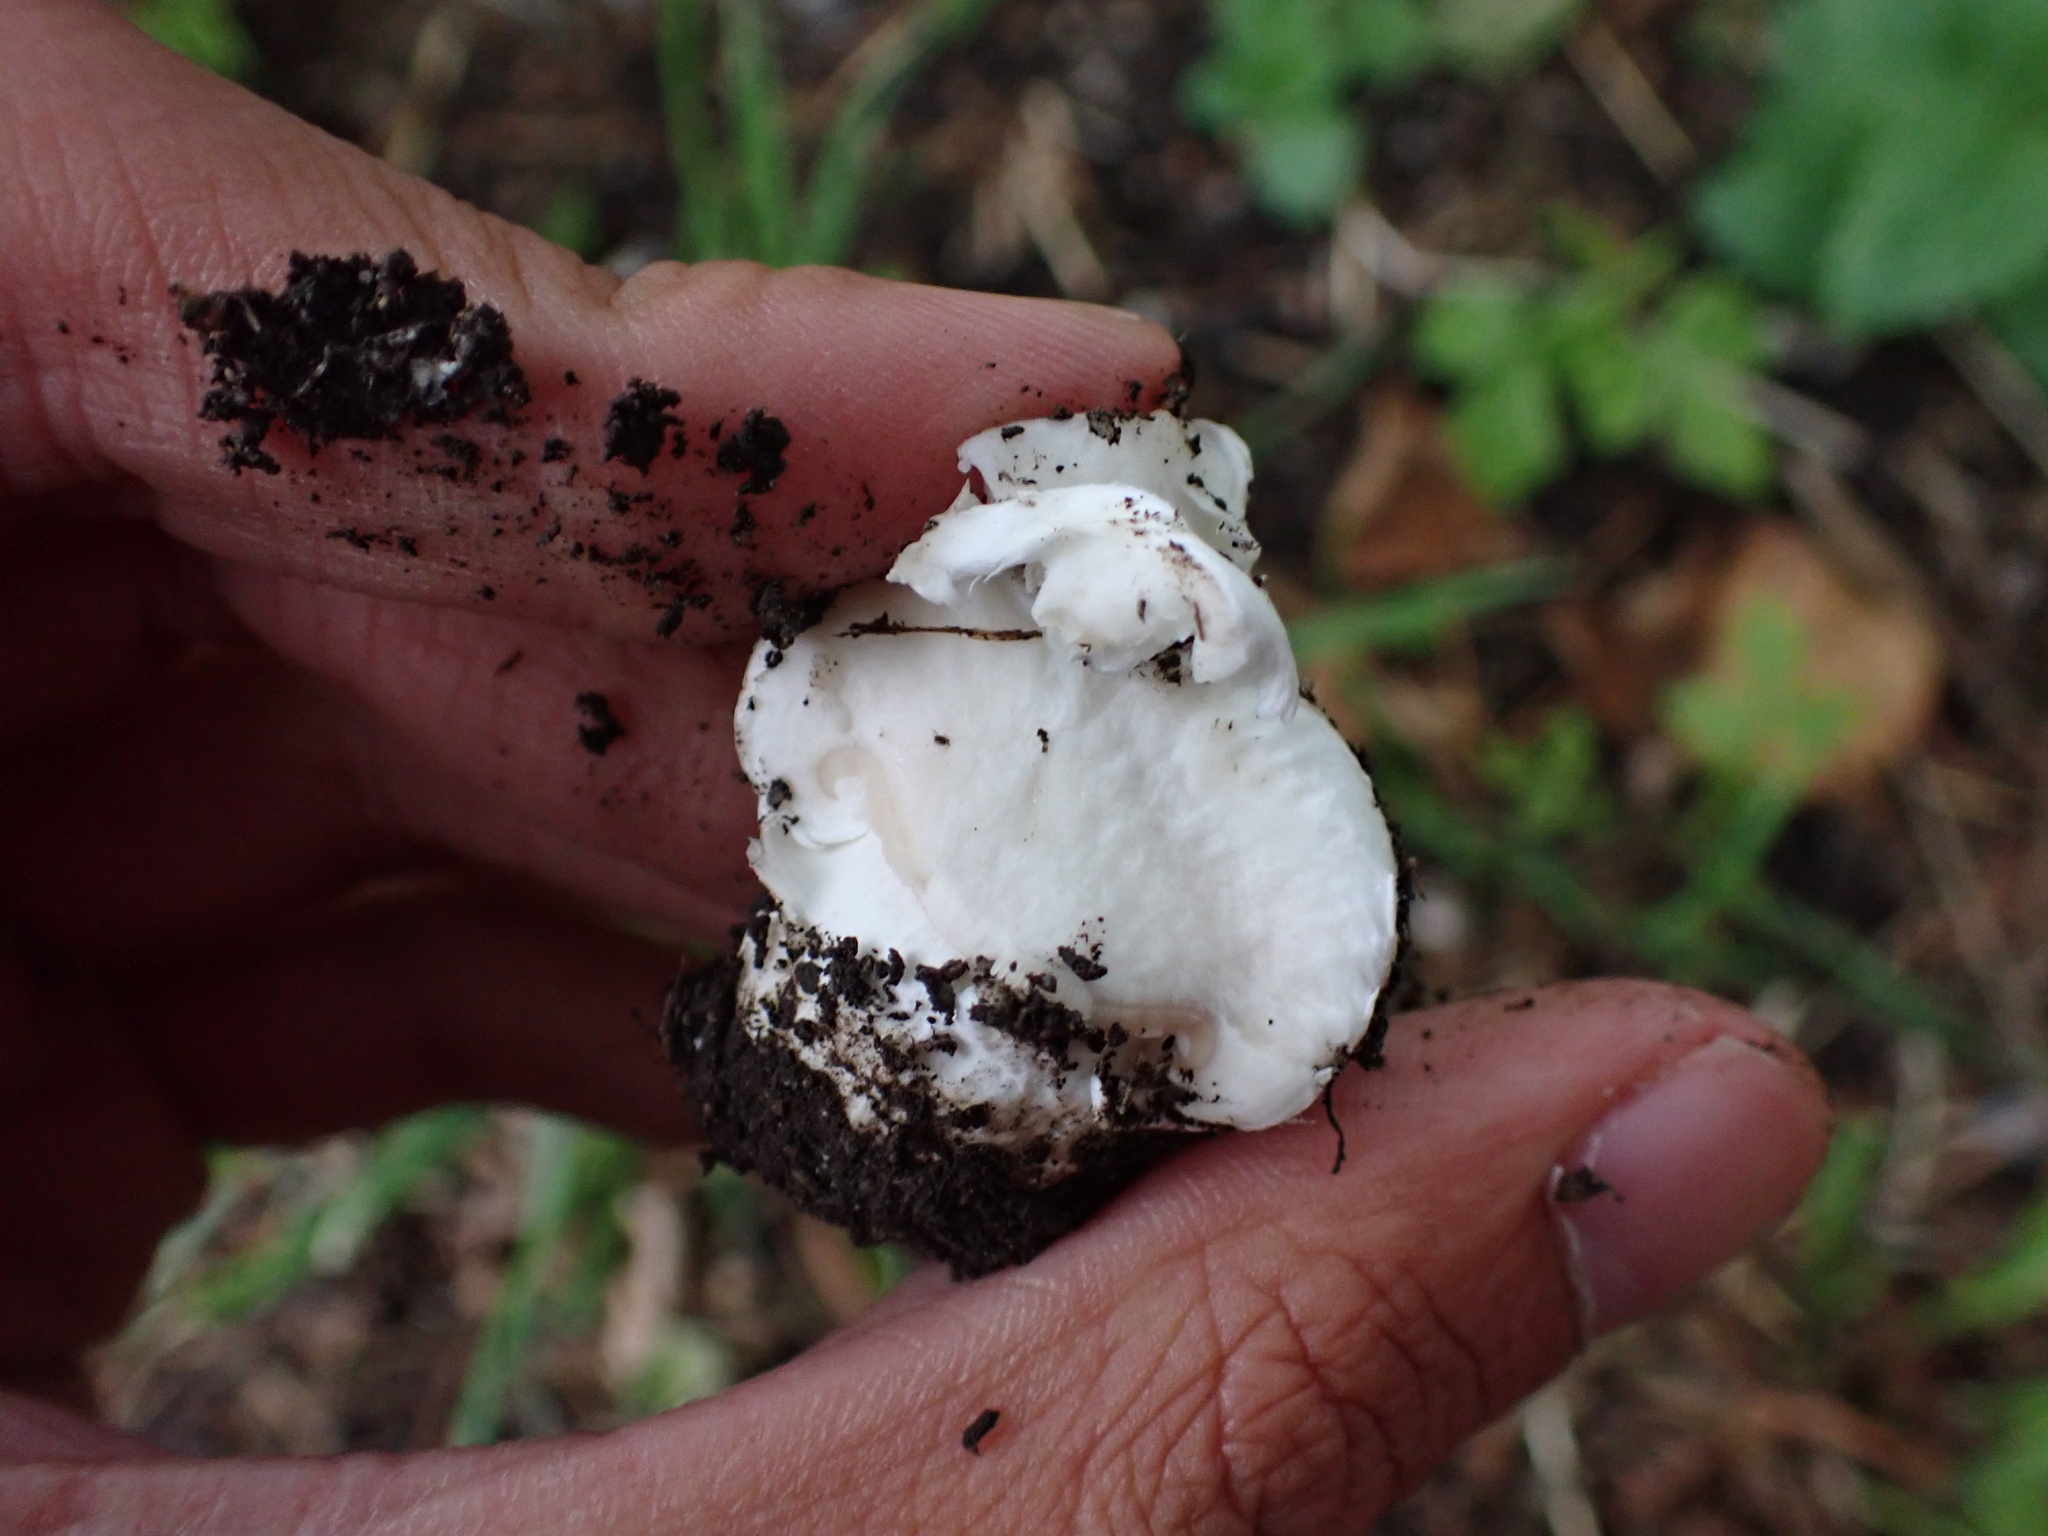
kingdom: Fungi
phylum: Basidiomycota
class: Agaricomycetes
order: Agaricales
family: Agaricaceae
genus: Agaricus
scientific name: Agaricus bitorquis
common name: Pavement mushroom
